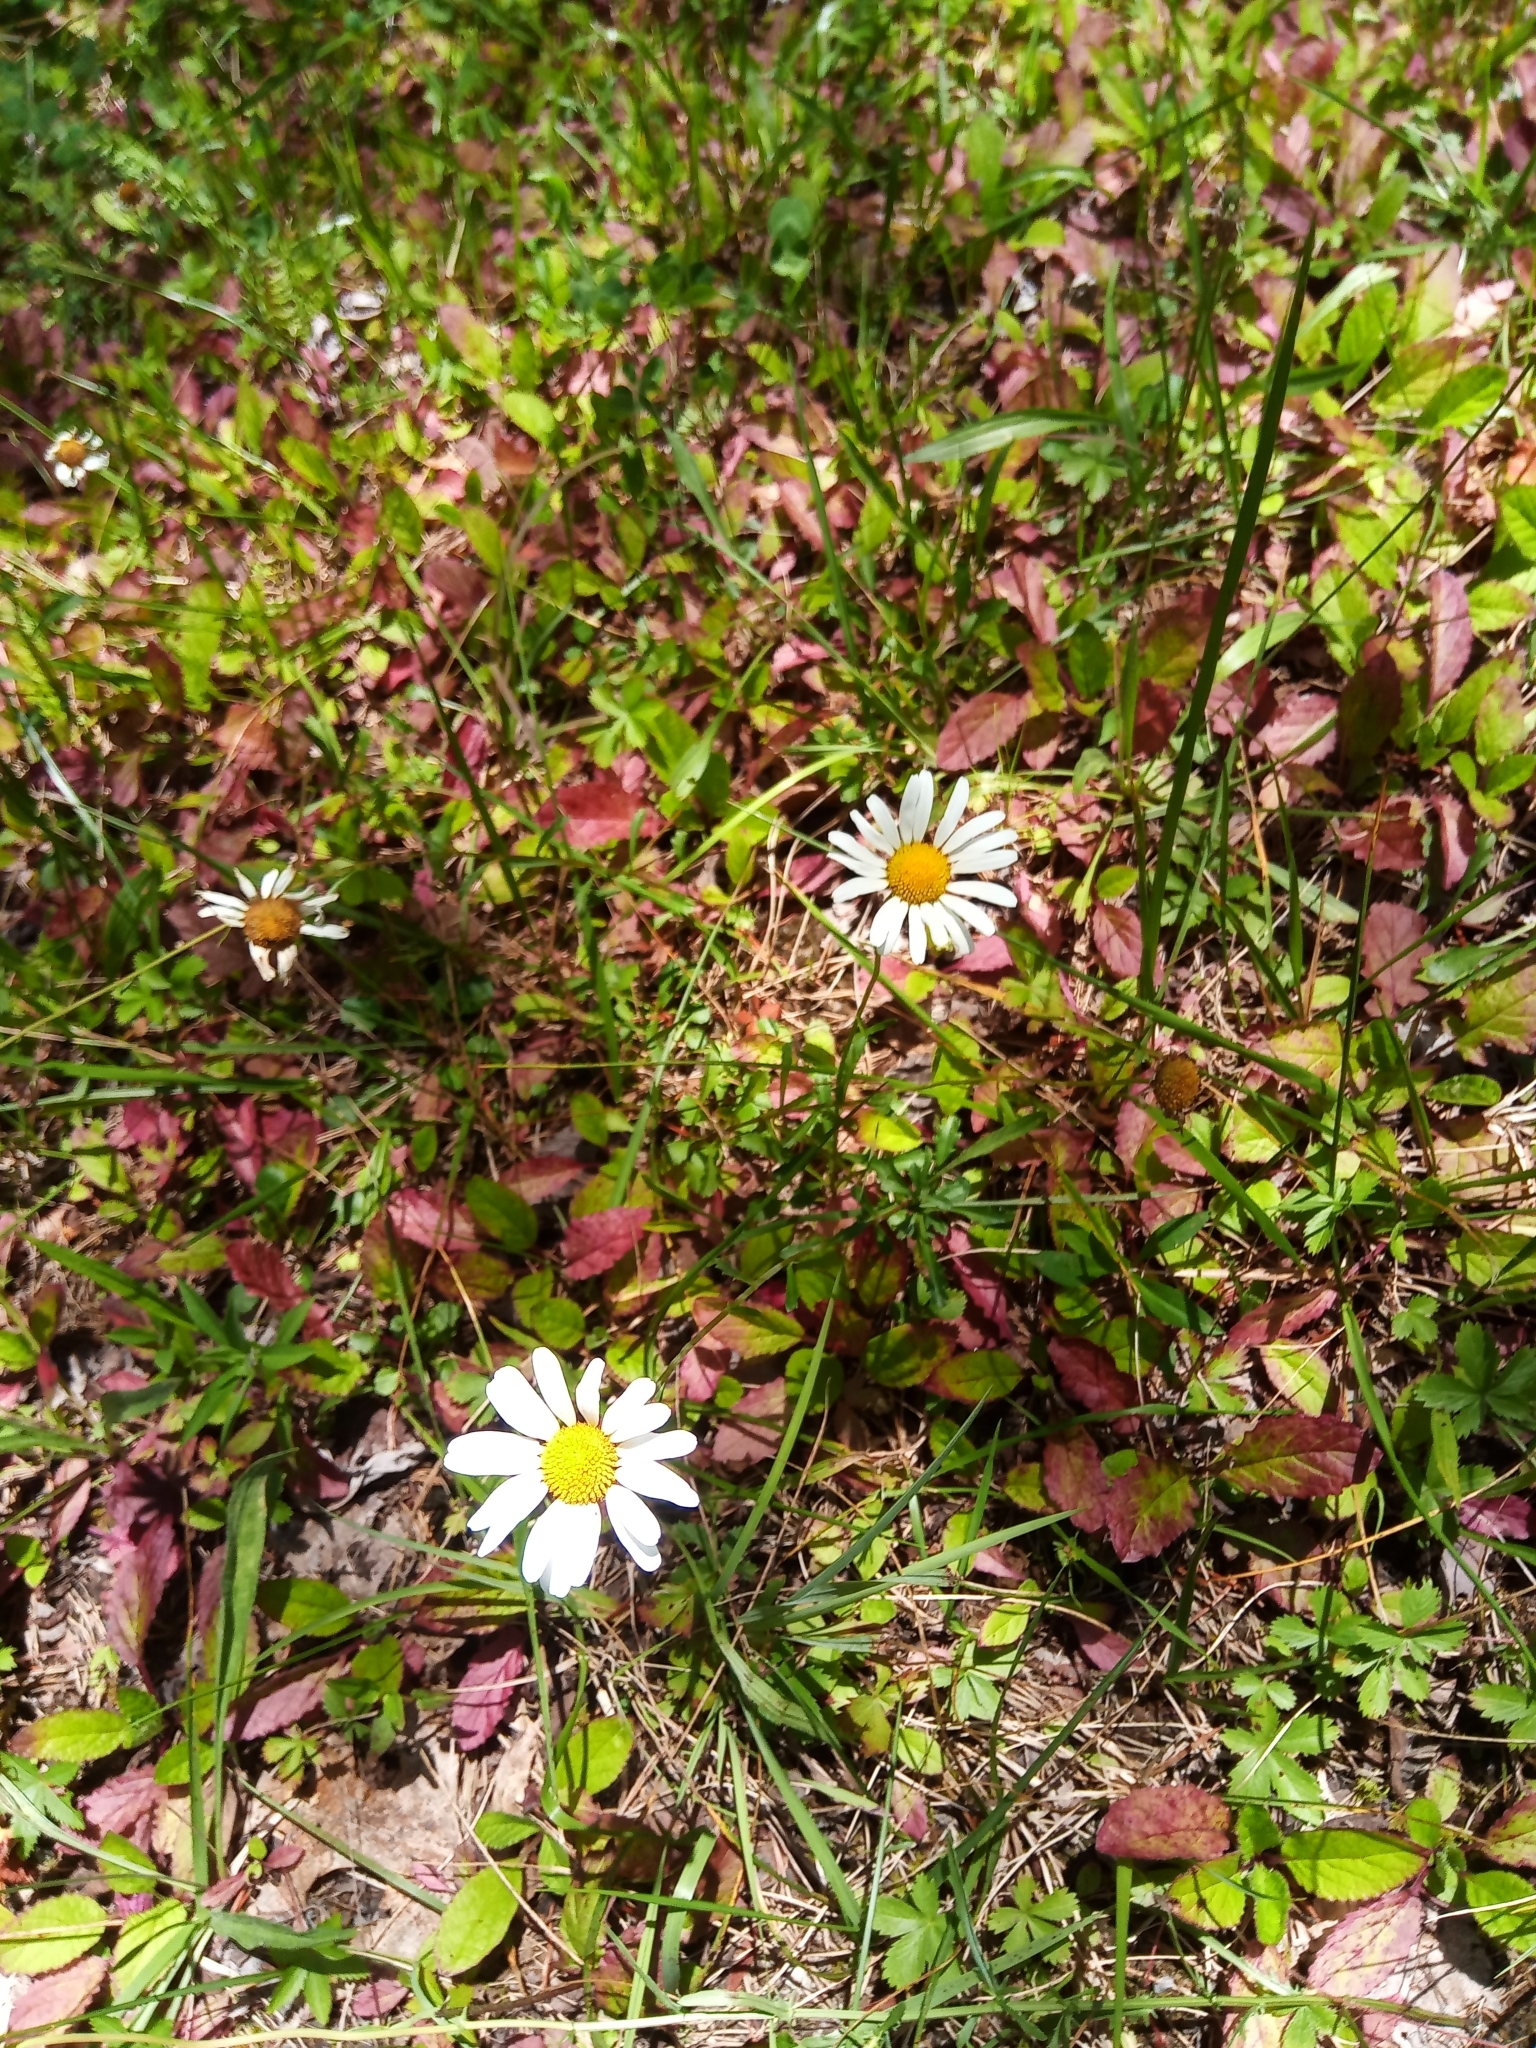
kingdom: Plantae
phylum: Tracheophyta
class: Magnoliopsida
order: Asterales
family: Asteraceae
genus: Leucanthemum
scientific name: Leucanthemum vulgare
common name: Oxeye daisy
